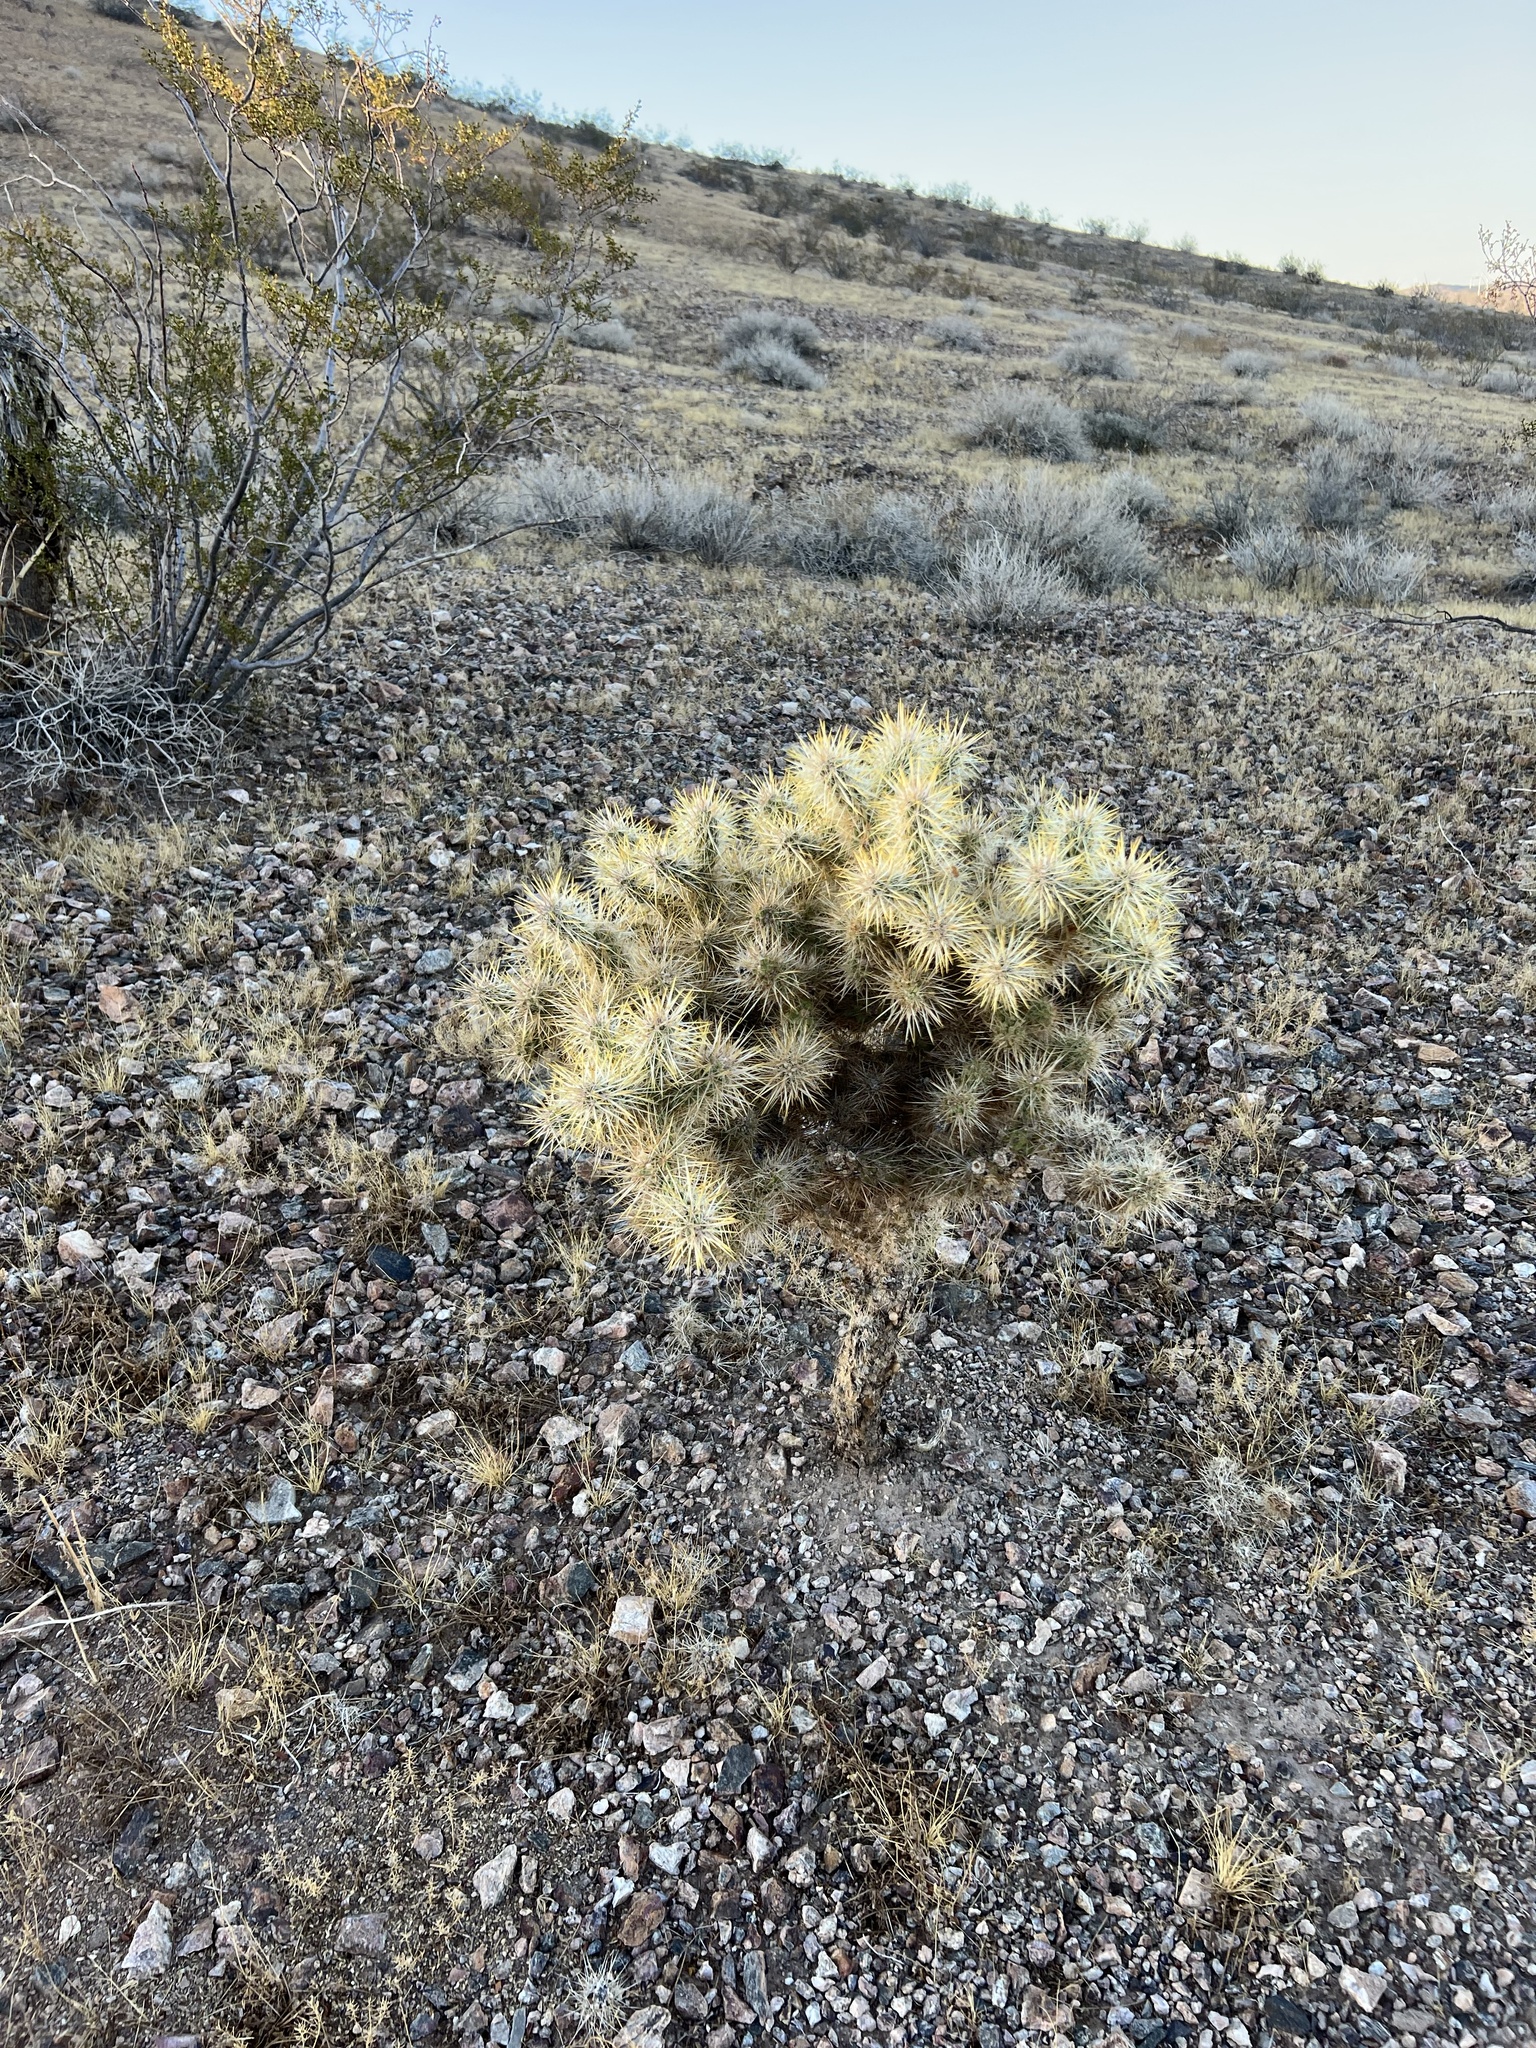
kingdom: Plantae
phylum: Tracheophyta
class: Magnoliopsida
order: Caryophyllales
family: Cactaceae
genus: Cylindropuntia
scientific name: Cylindropuntia echinocarpa
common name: Ground cholla
